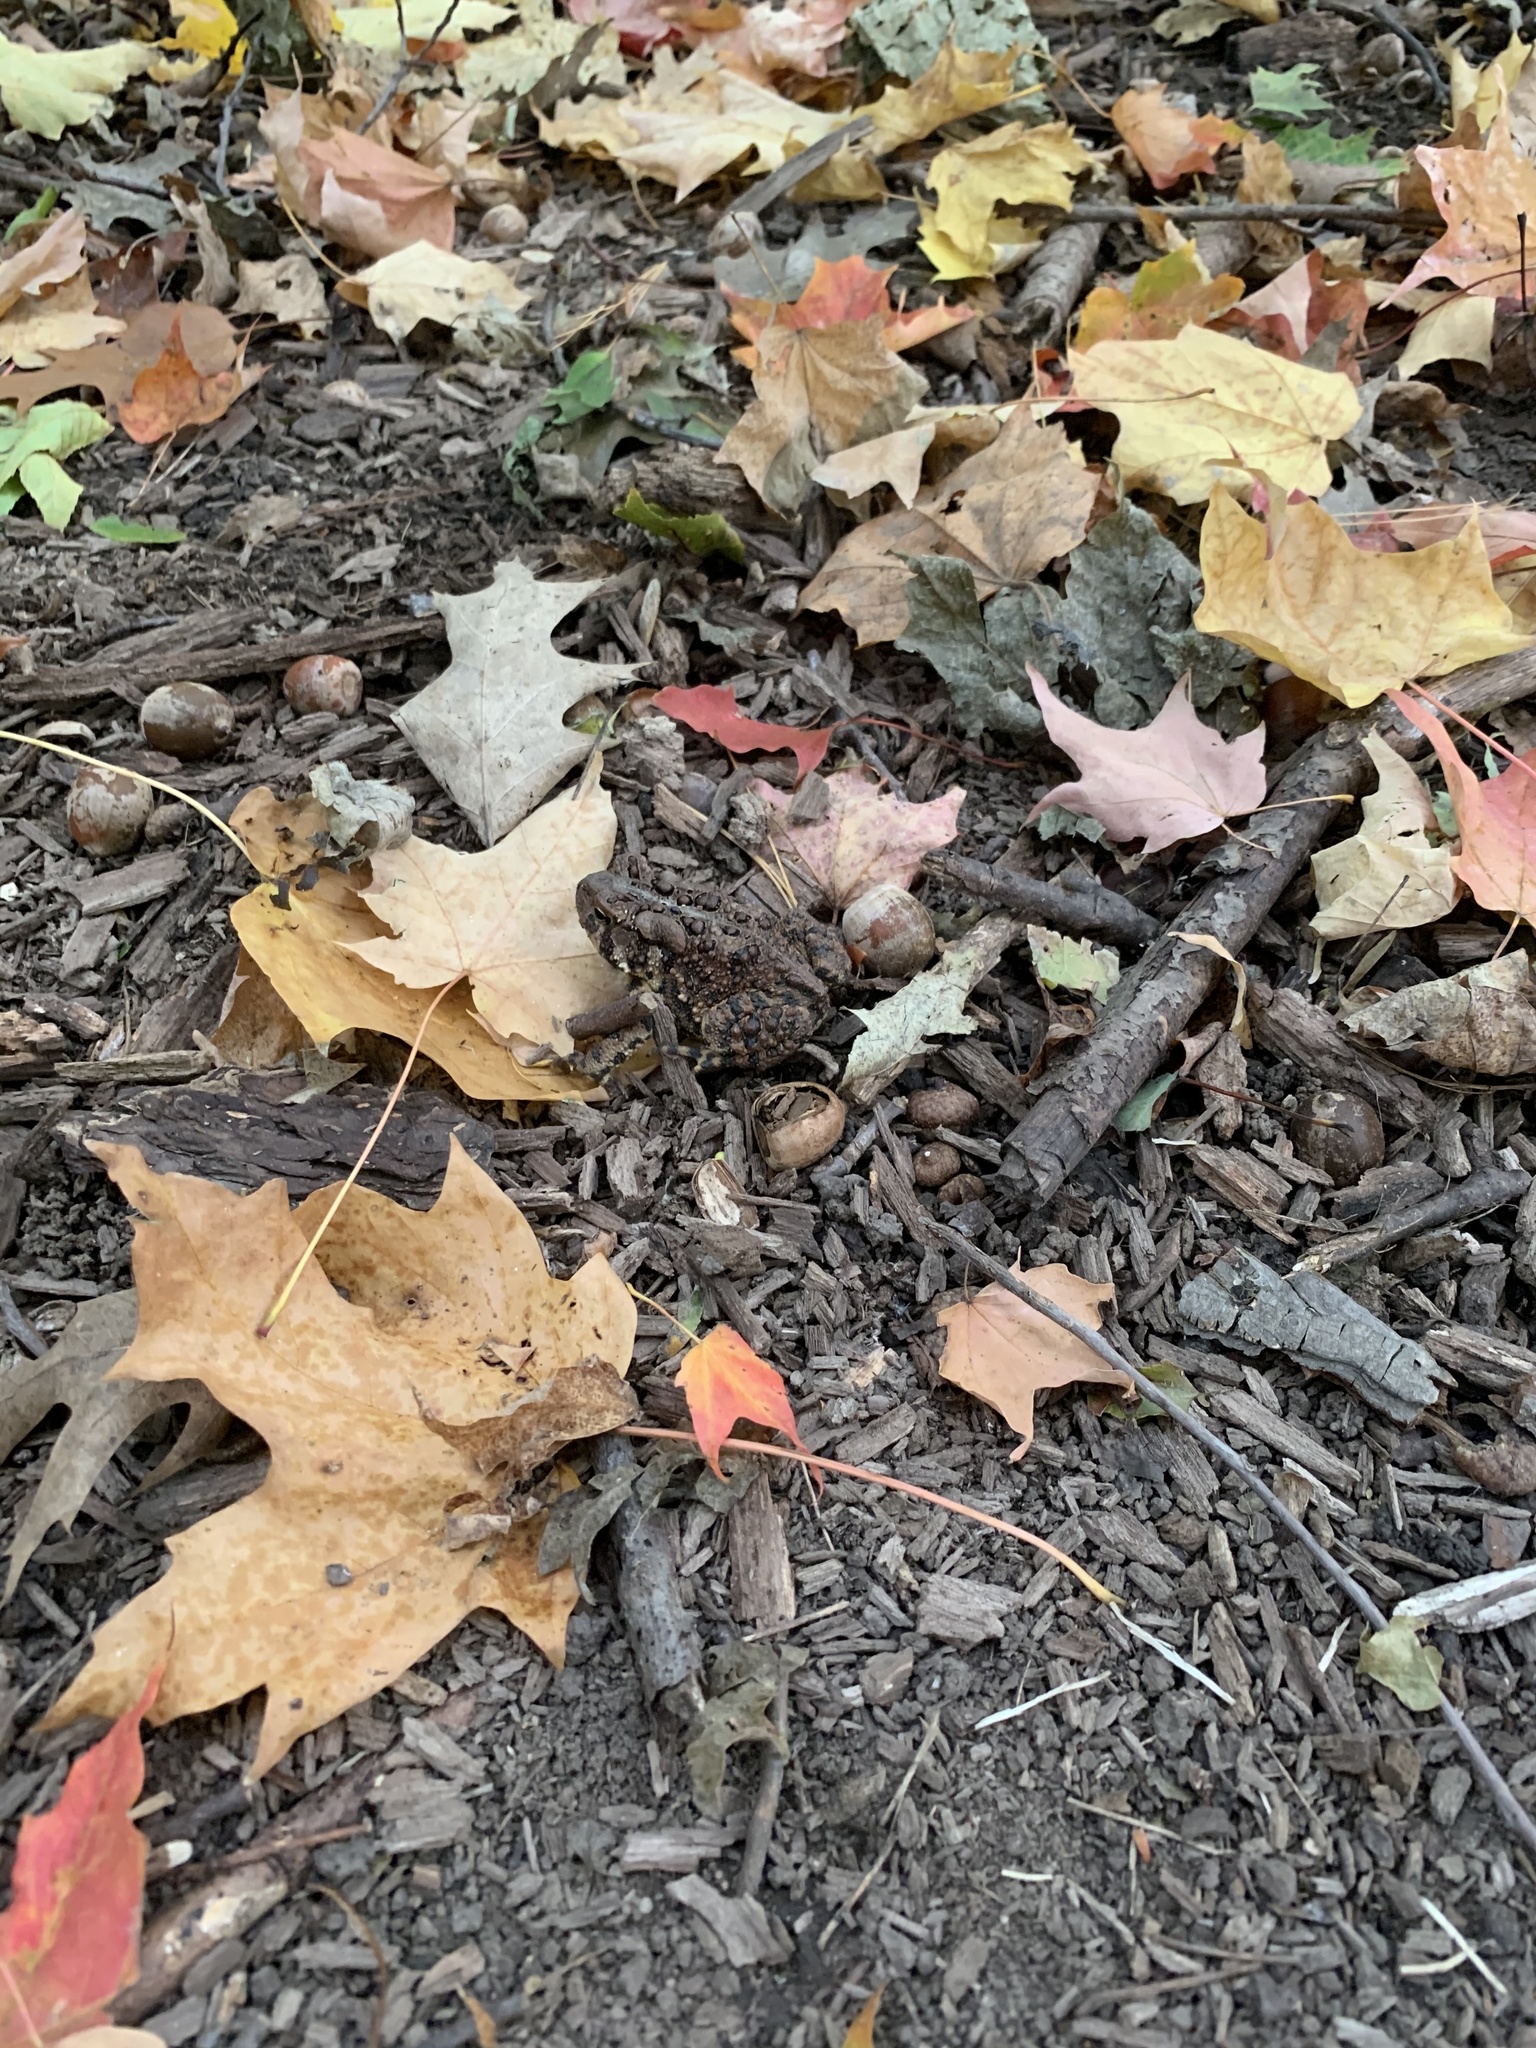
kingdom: Animalia
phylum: Chordata
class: Amphibia
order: Anura
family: Bufonidae
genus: Anaxyrus
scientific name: Anaxyrus americanus
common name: American toad
